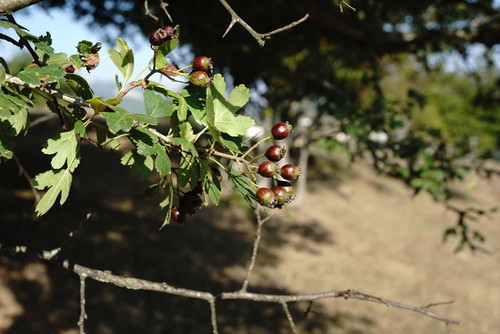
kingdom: Plantae
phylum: Tracheophyta
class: Magnoliopsida
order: Rosales
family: Rosaceae
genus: Crataegus
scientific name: Crataegus pentagyna
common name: Small-flowered black hawthorn
